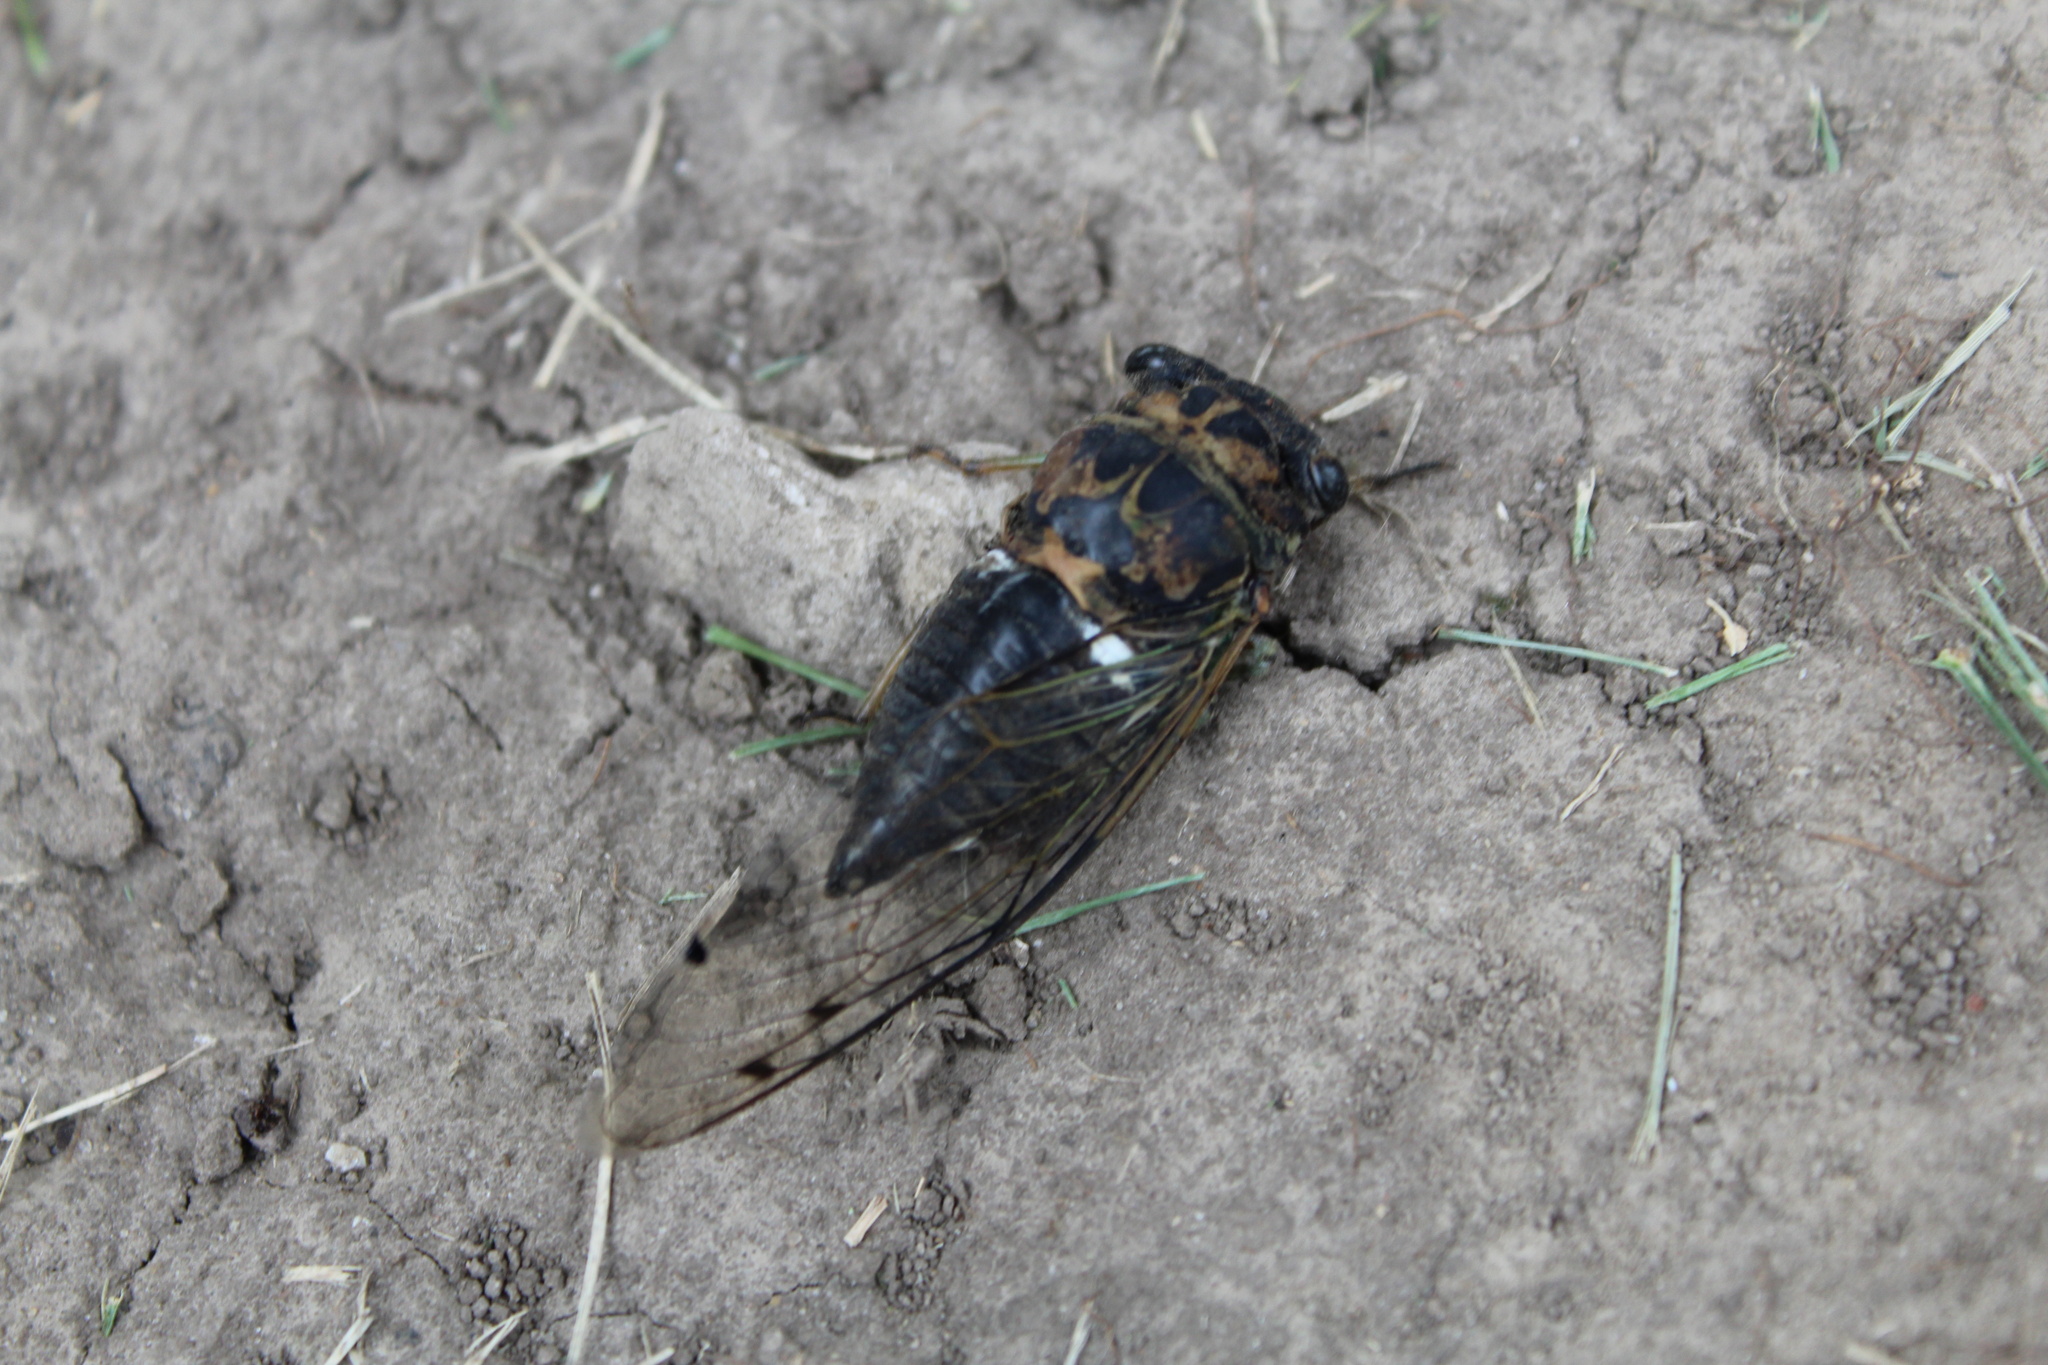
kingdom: Animalia
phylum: Arthropoda
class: Insecta
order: Hemiptera
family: Cicadidae
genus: Neotibicen
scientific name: Neotibicen pruinosus
